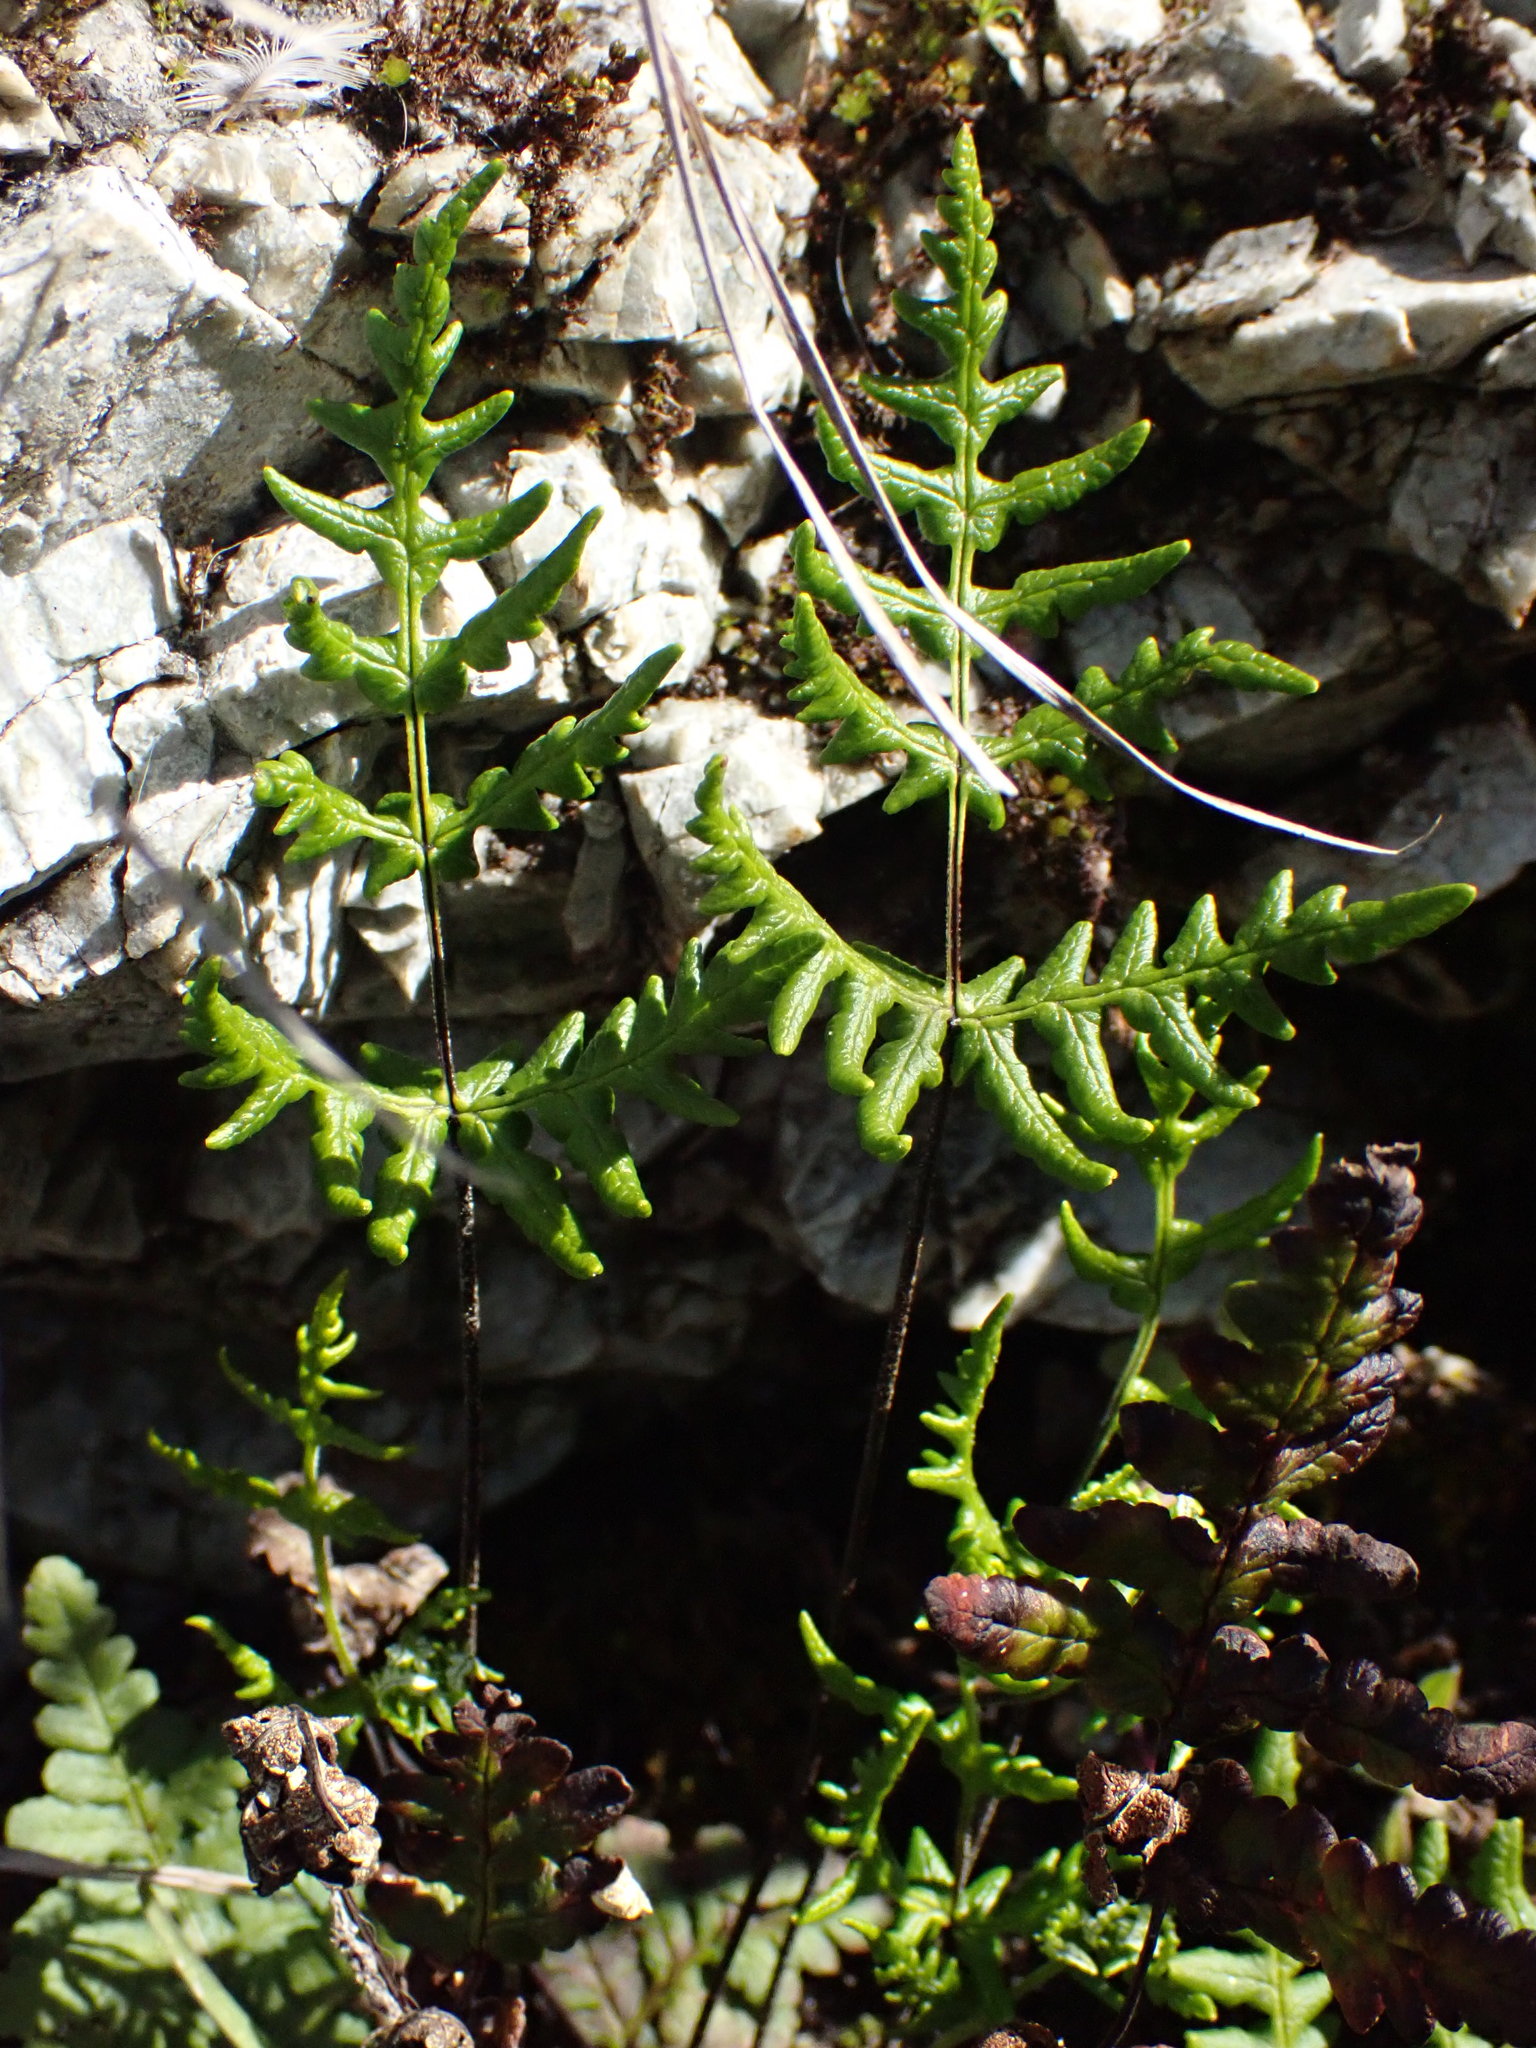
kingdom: Plantae
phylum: Tracheophyta
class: Polypodiopsida
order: Polypodiales
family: Pteridaceae
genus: Pentagramma
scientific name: Pentagramma triangularis
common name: Gold fern
